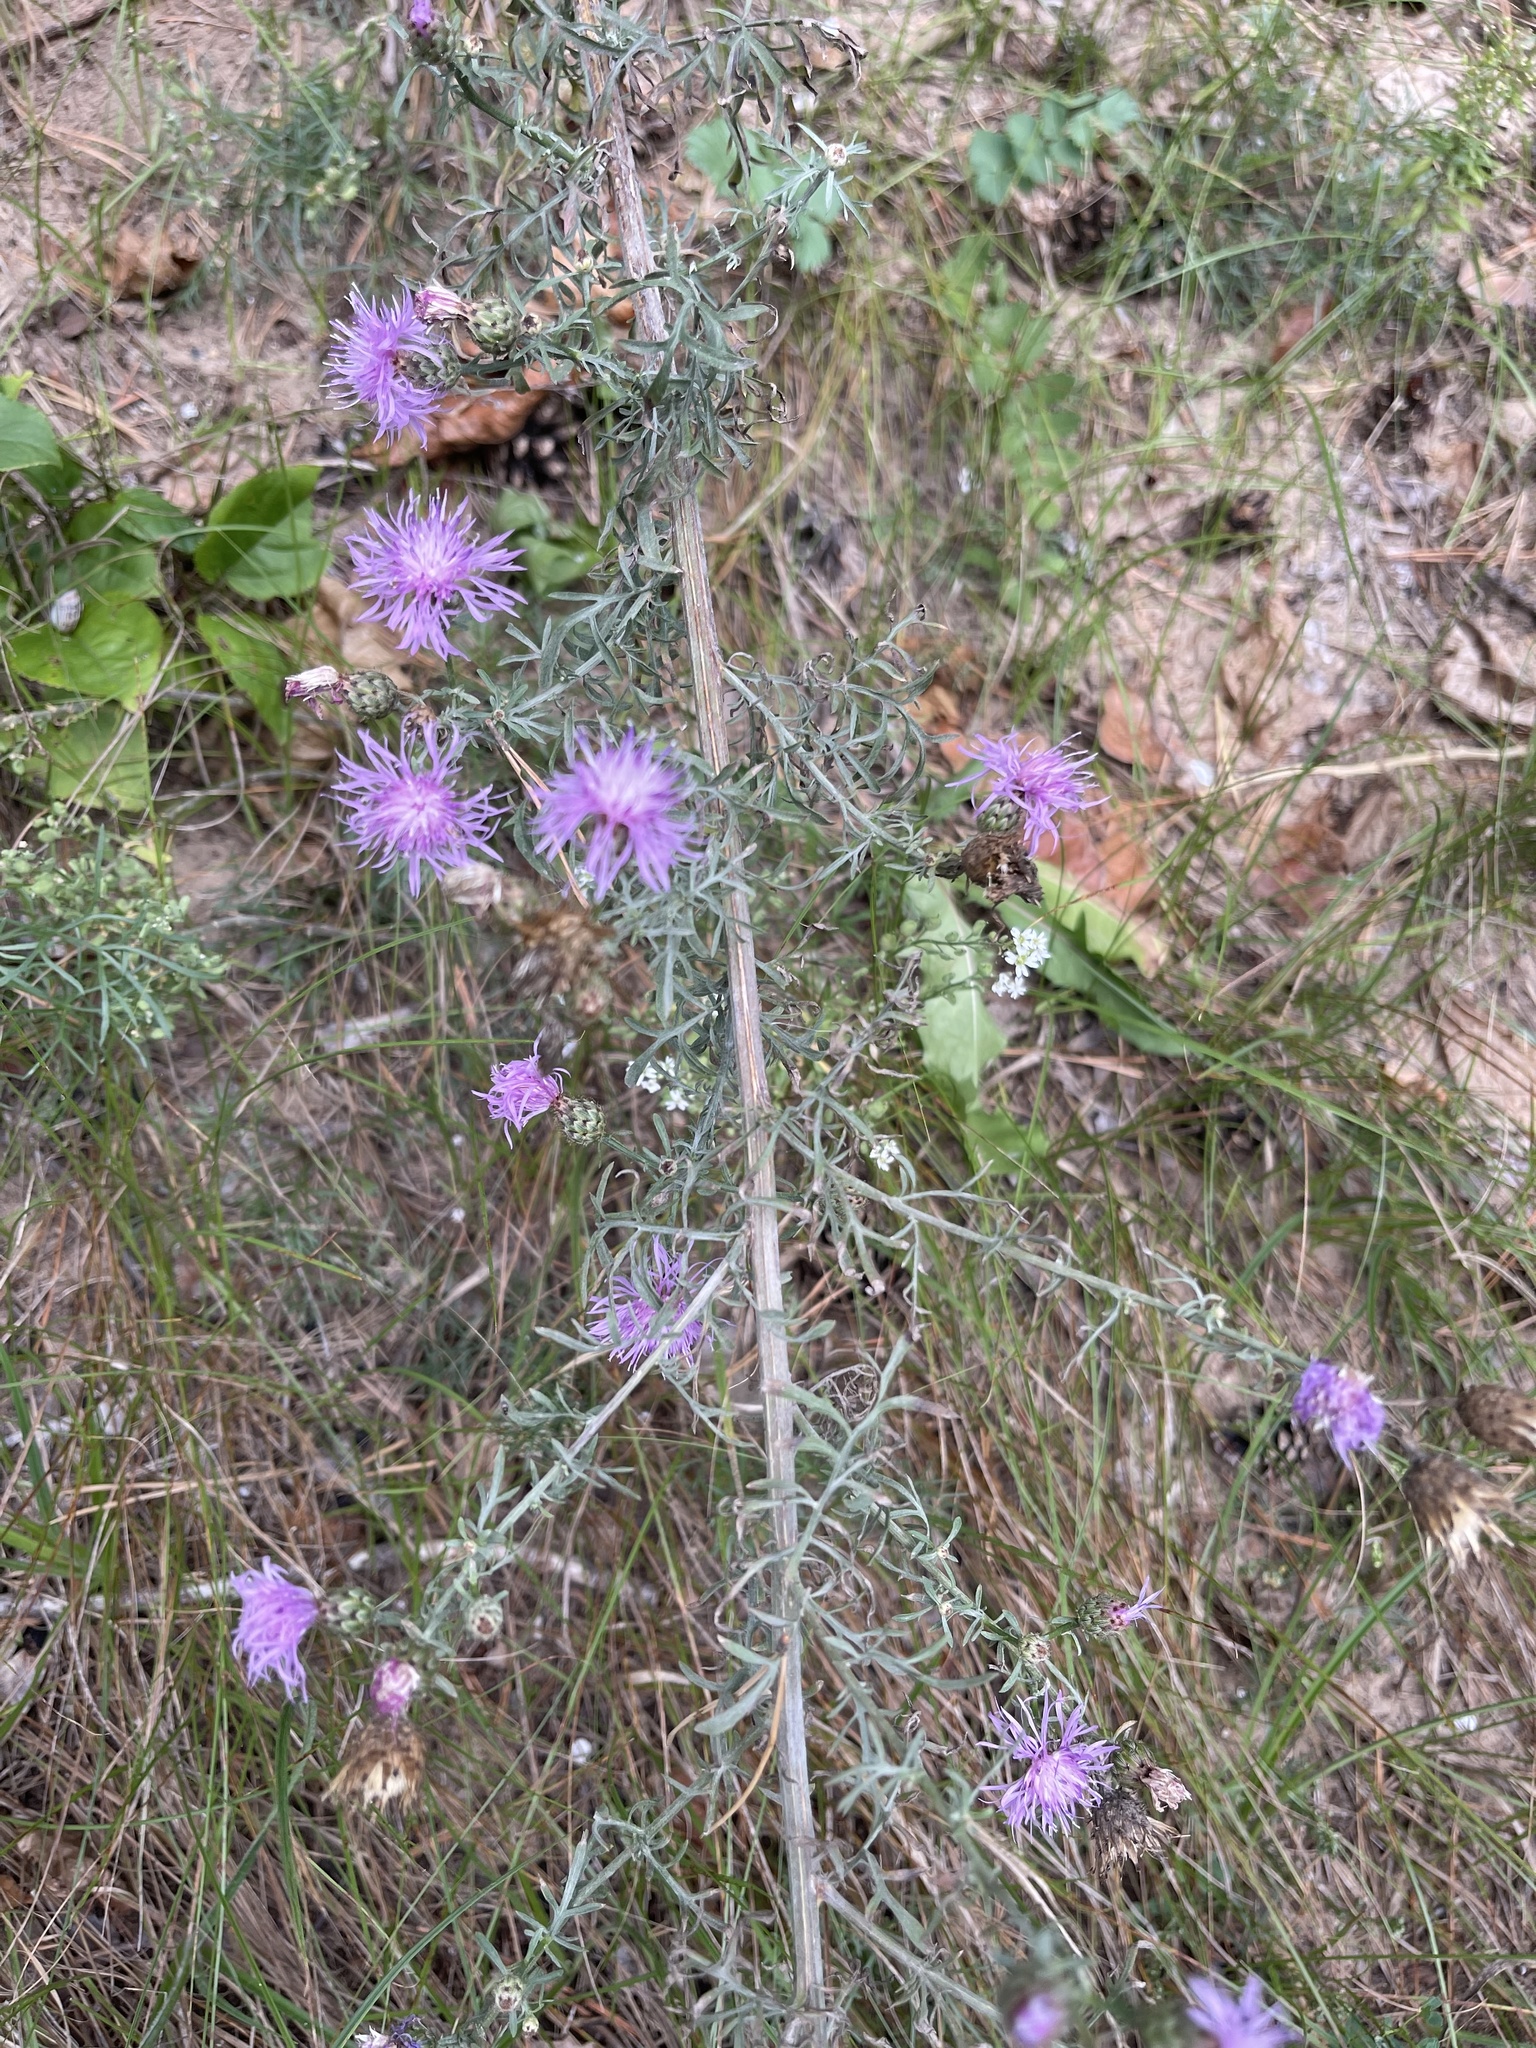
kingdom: Plantae
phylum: Tracheophyta
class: Magnoliopsida
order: Asterales
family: Asteraceae
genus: Centaurea
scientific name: Centaurea stoebe
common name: Spotted knapweed
